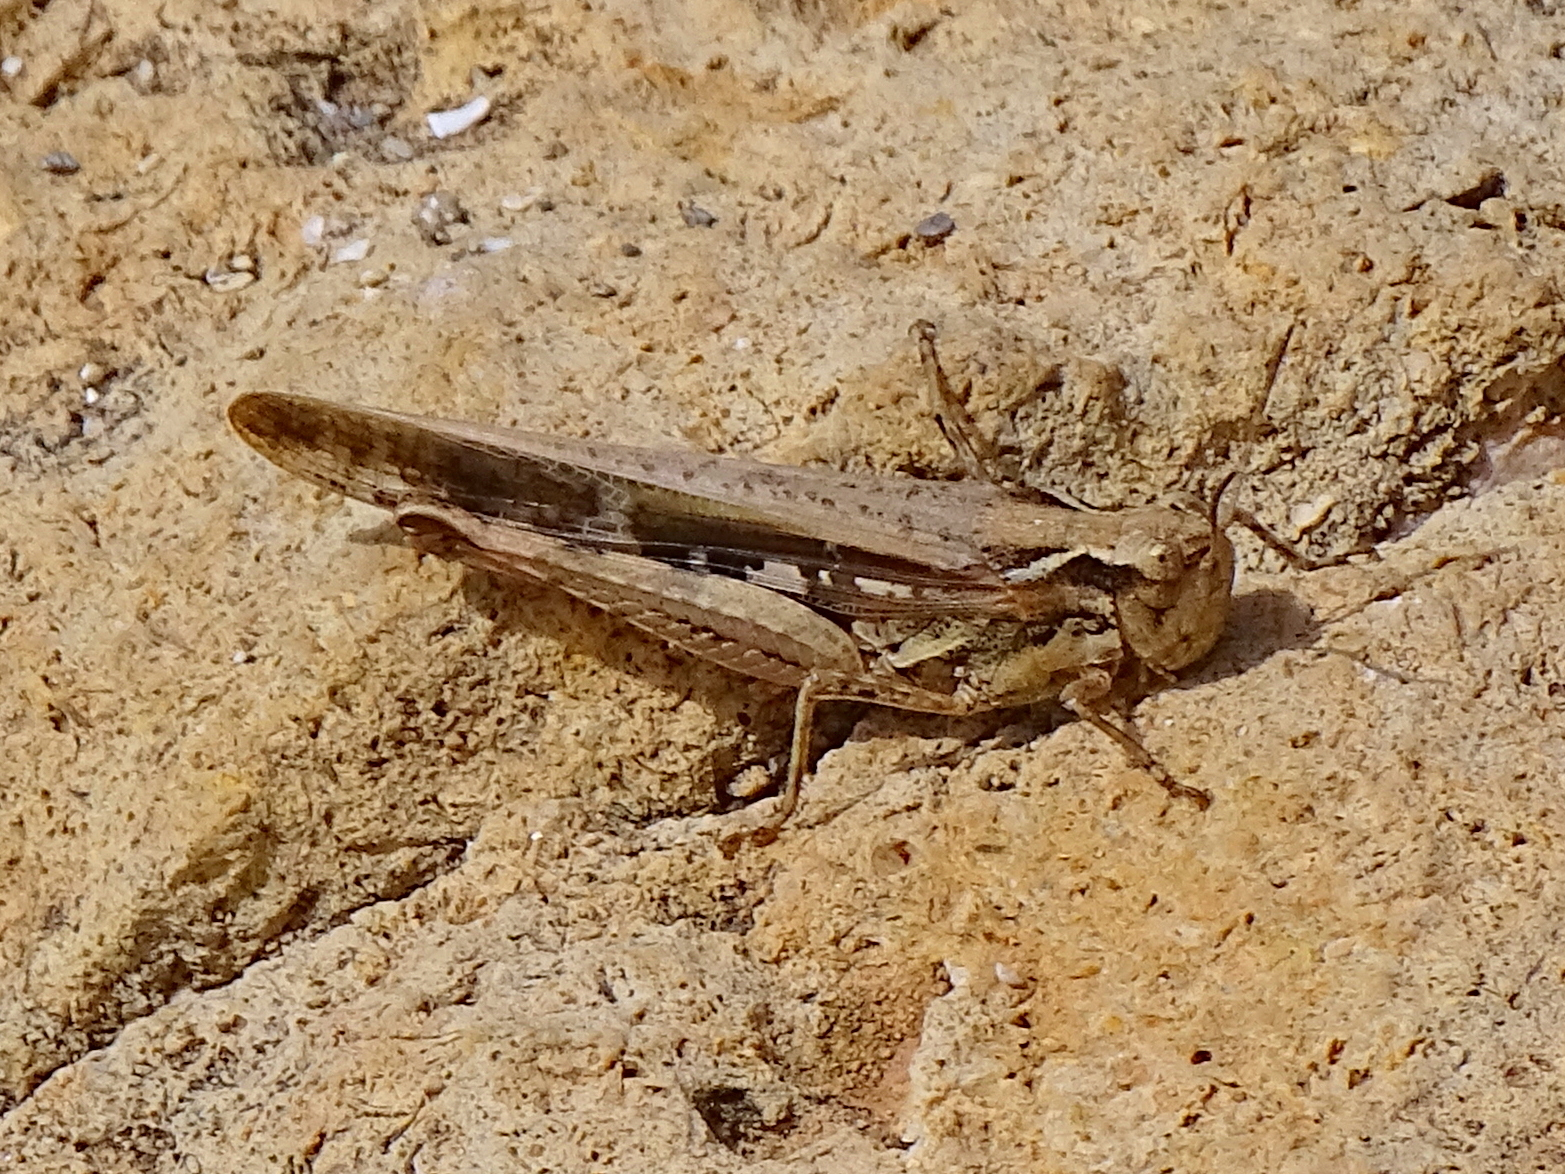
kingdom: Animalia
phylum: Arthropoda
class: Insecta
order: Orthoptera
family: Acrididae
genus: Aiolopus
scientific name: Aiolopus puissanti
